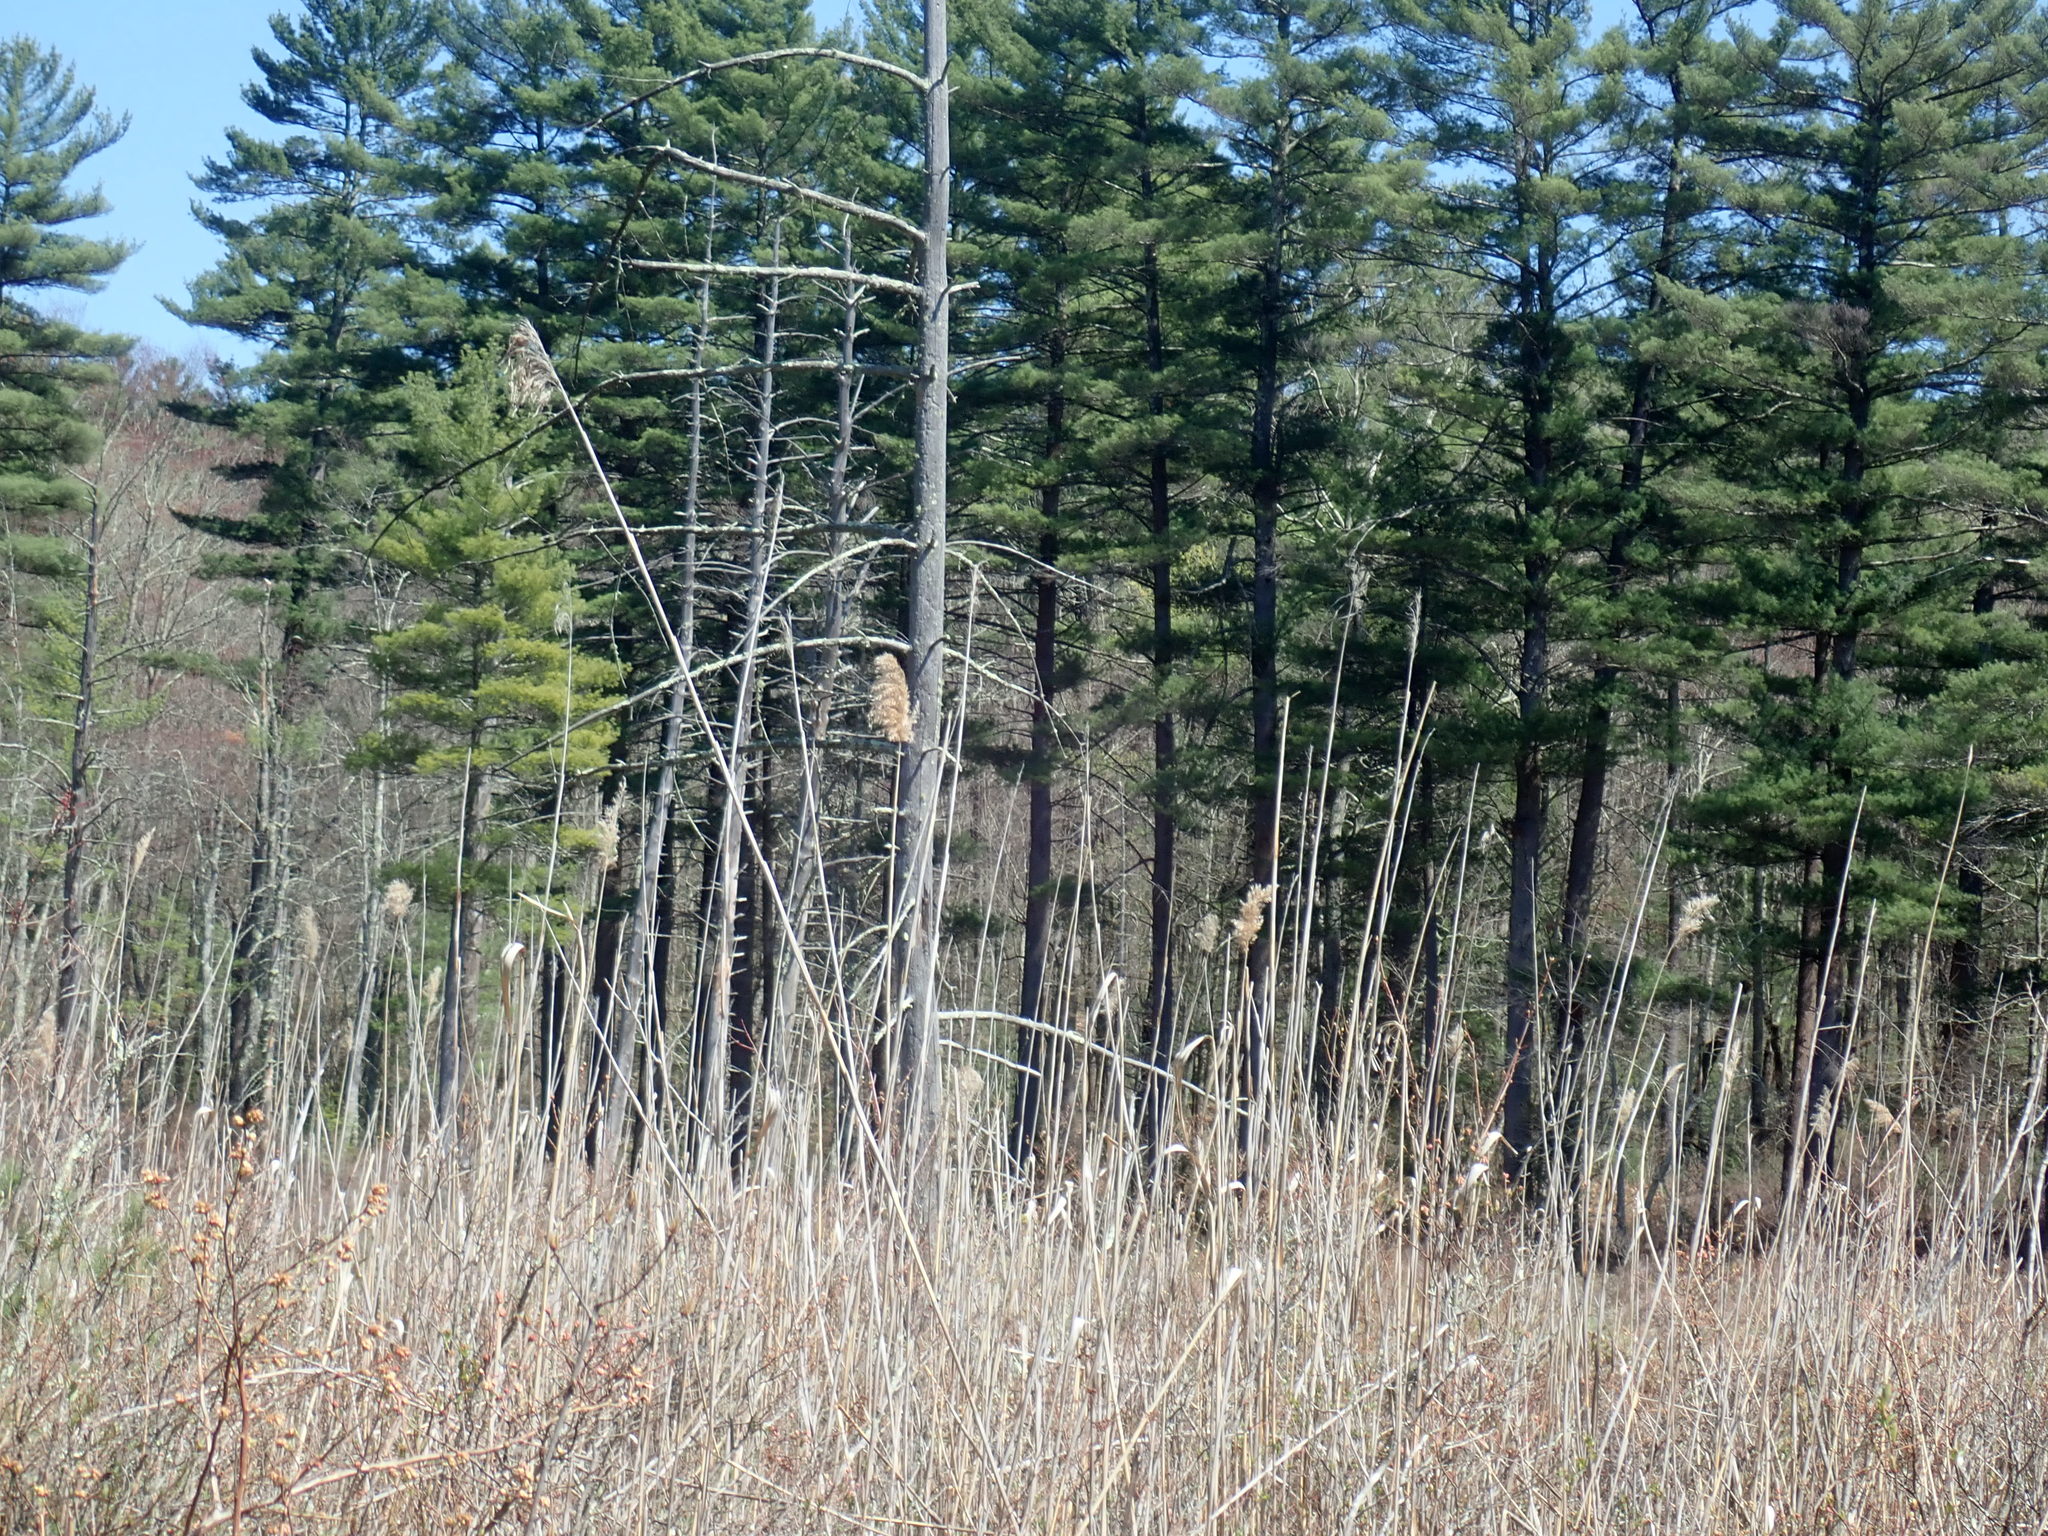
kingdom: Plantae
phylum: Tracheophyta
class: Liliopsida
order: Poales
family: Poaceae
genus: Phragmites
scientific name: Phragmites australis
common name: Common reed
